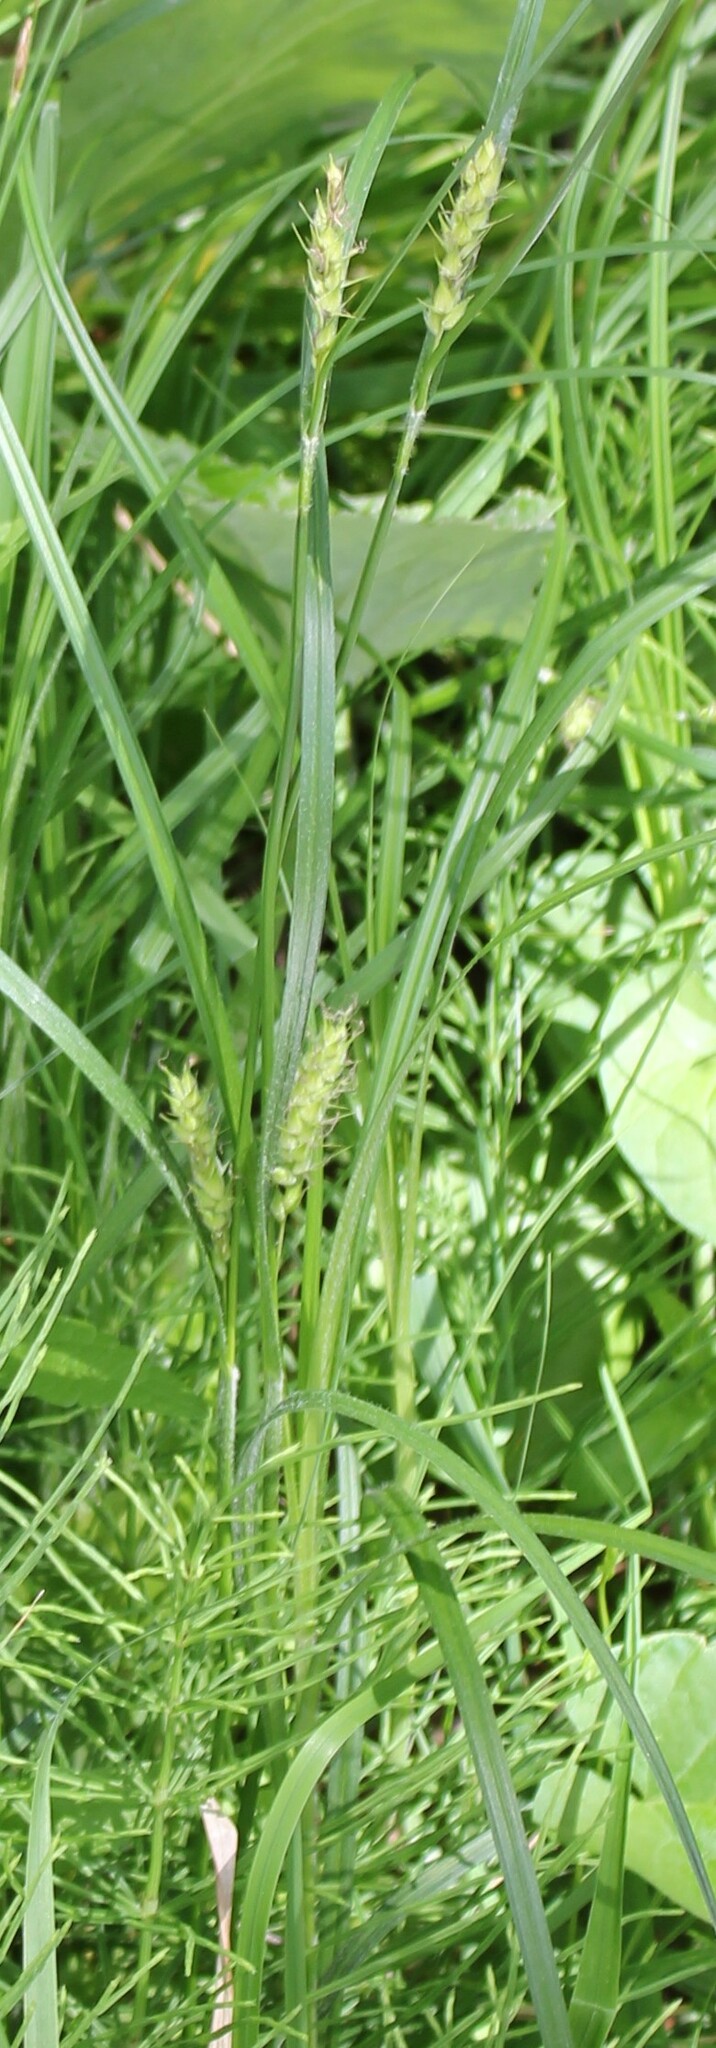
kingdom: Plantae
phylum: Tracheophyta
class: Liliopsida
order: Poales
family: Cyperaceae
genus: Carex
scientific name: Carex hirta
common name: Hairy sedge
